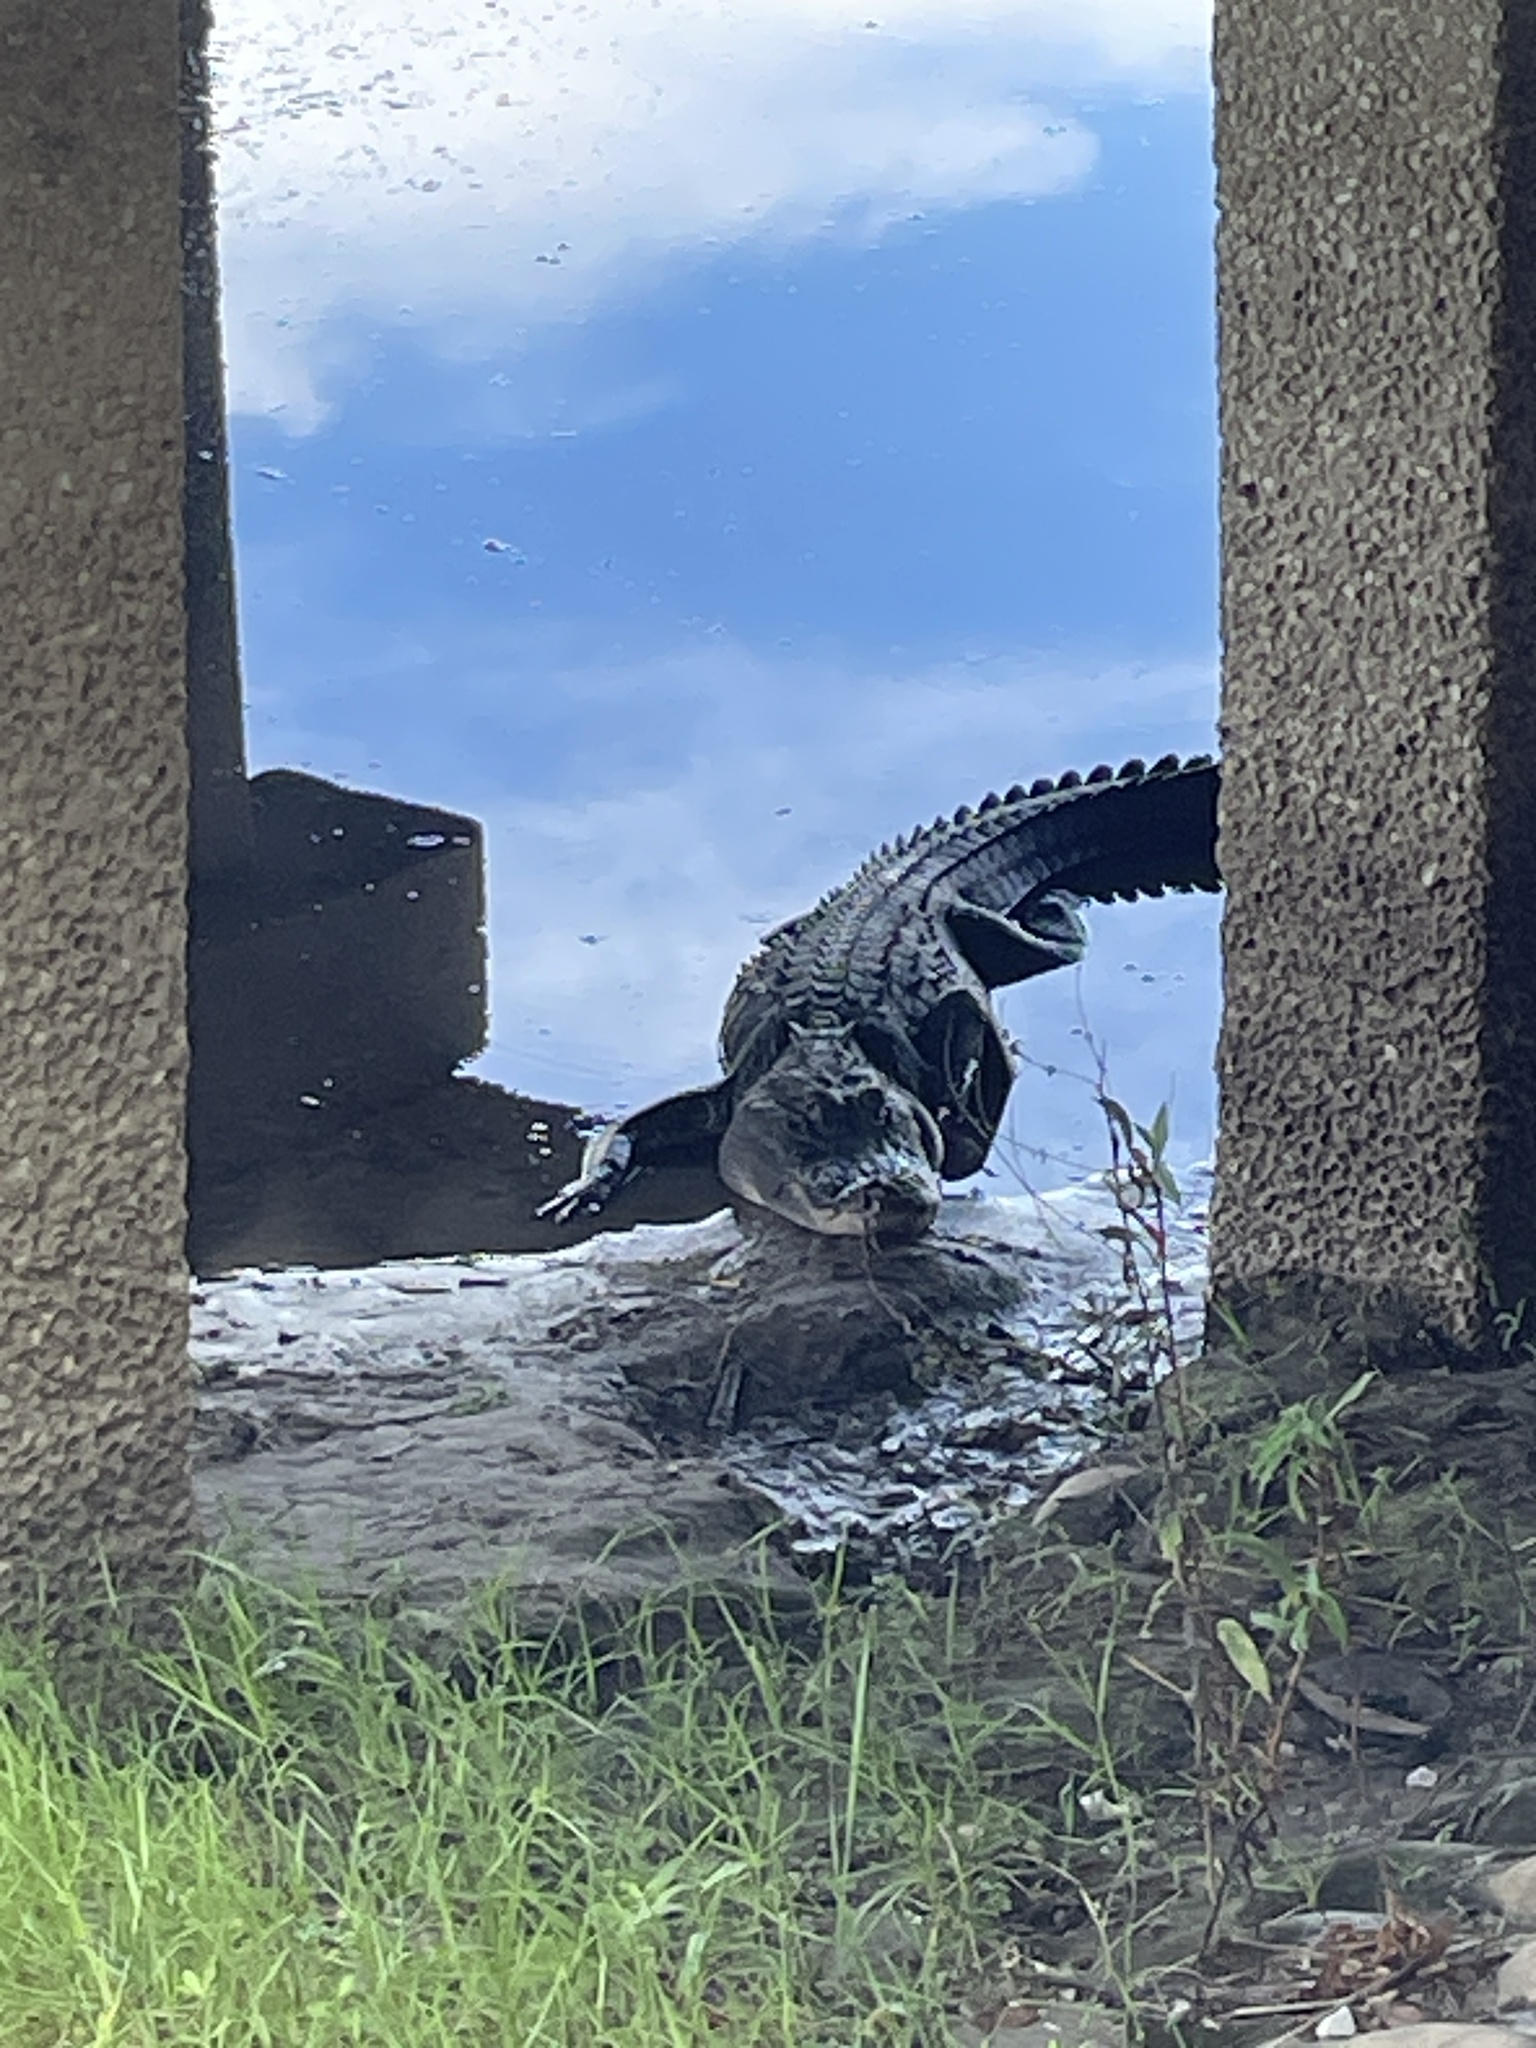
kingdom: Animalia
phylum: Chordata
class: Crocodylia
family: Alligatoridae
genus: Alligator
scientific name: Alligator mississippiensis
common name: American alligator
